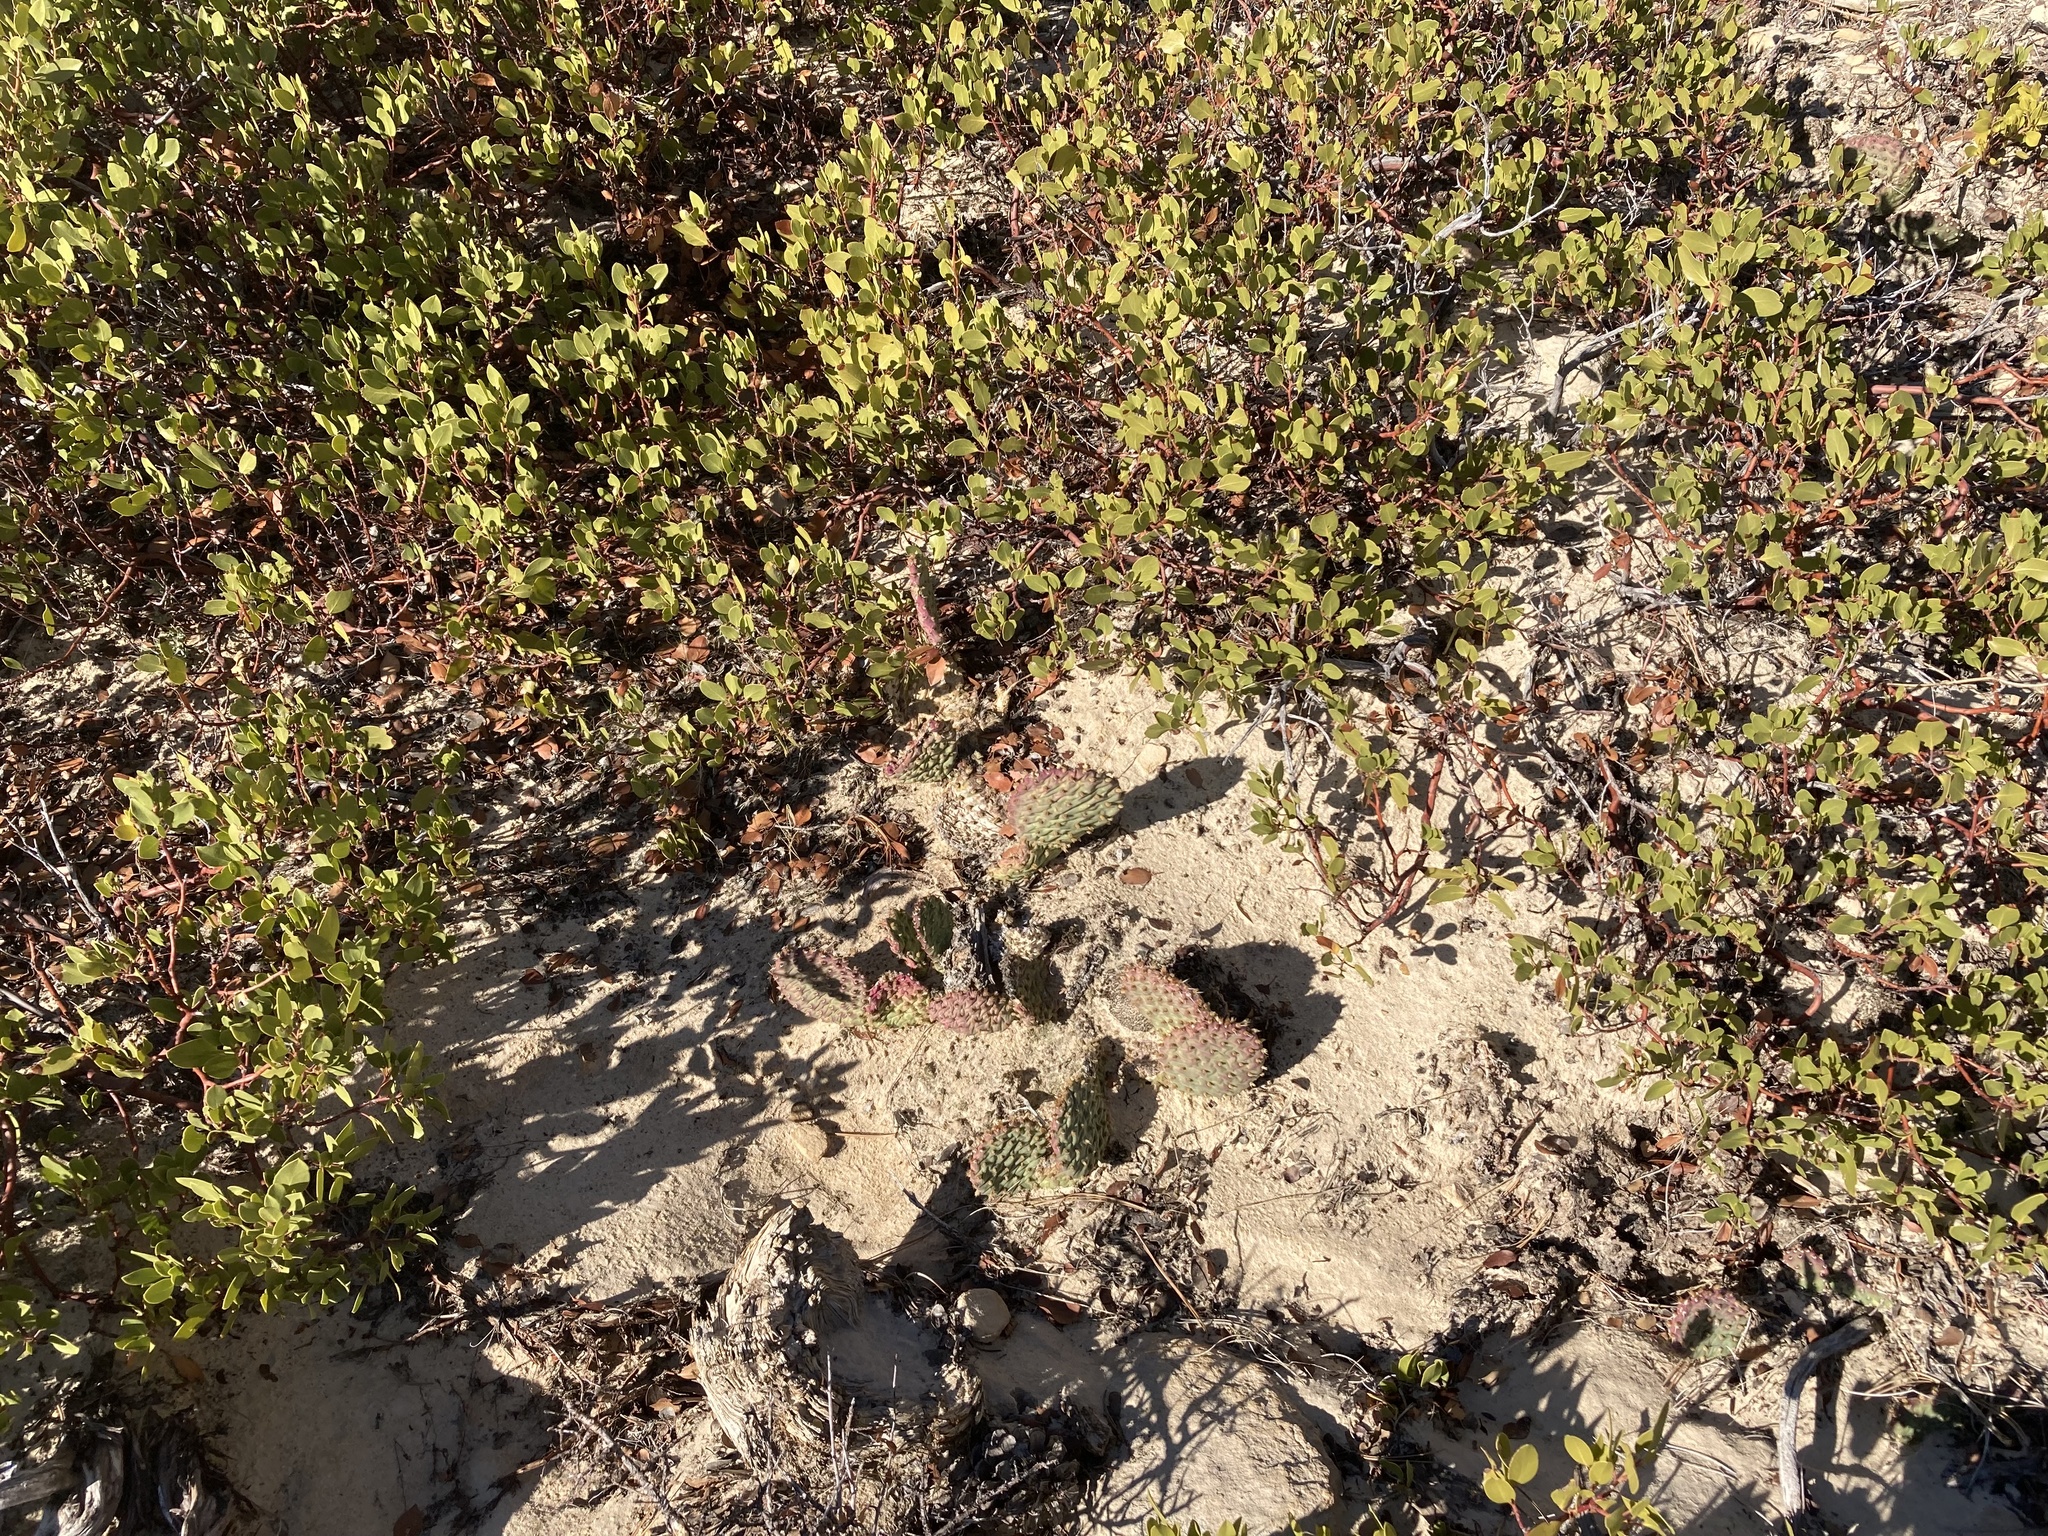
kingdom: Plantae
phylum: Tracheophyta
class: Magnoliopsida
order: Caryophyllales
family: Cactaceae
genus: Opuntia
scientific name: Opuntia aurea
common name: Golden prickly-pear
